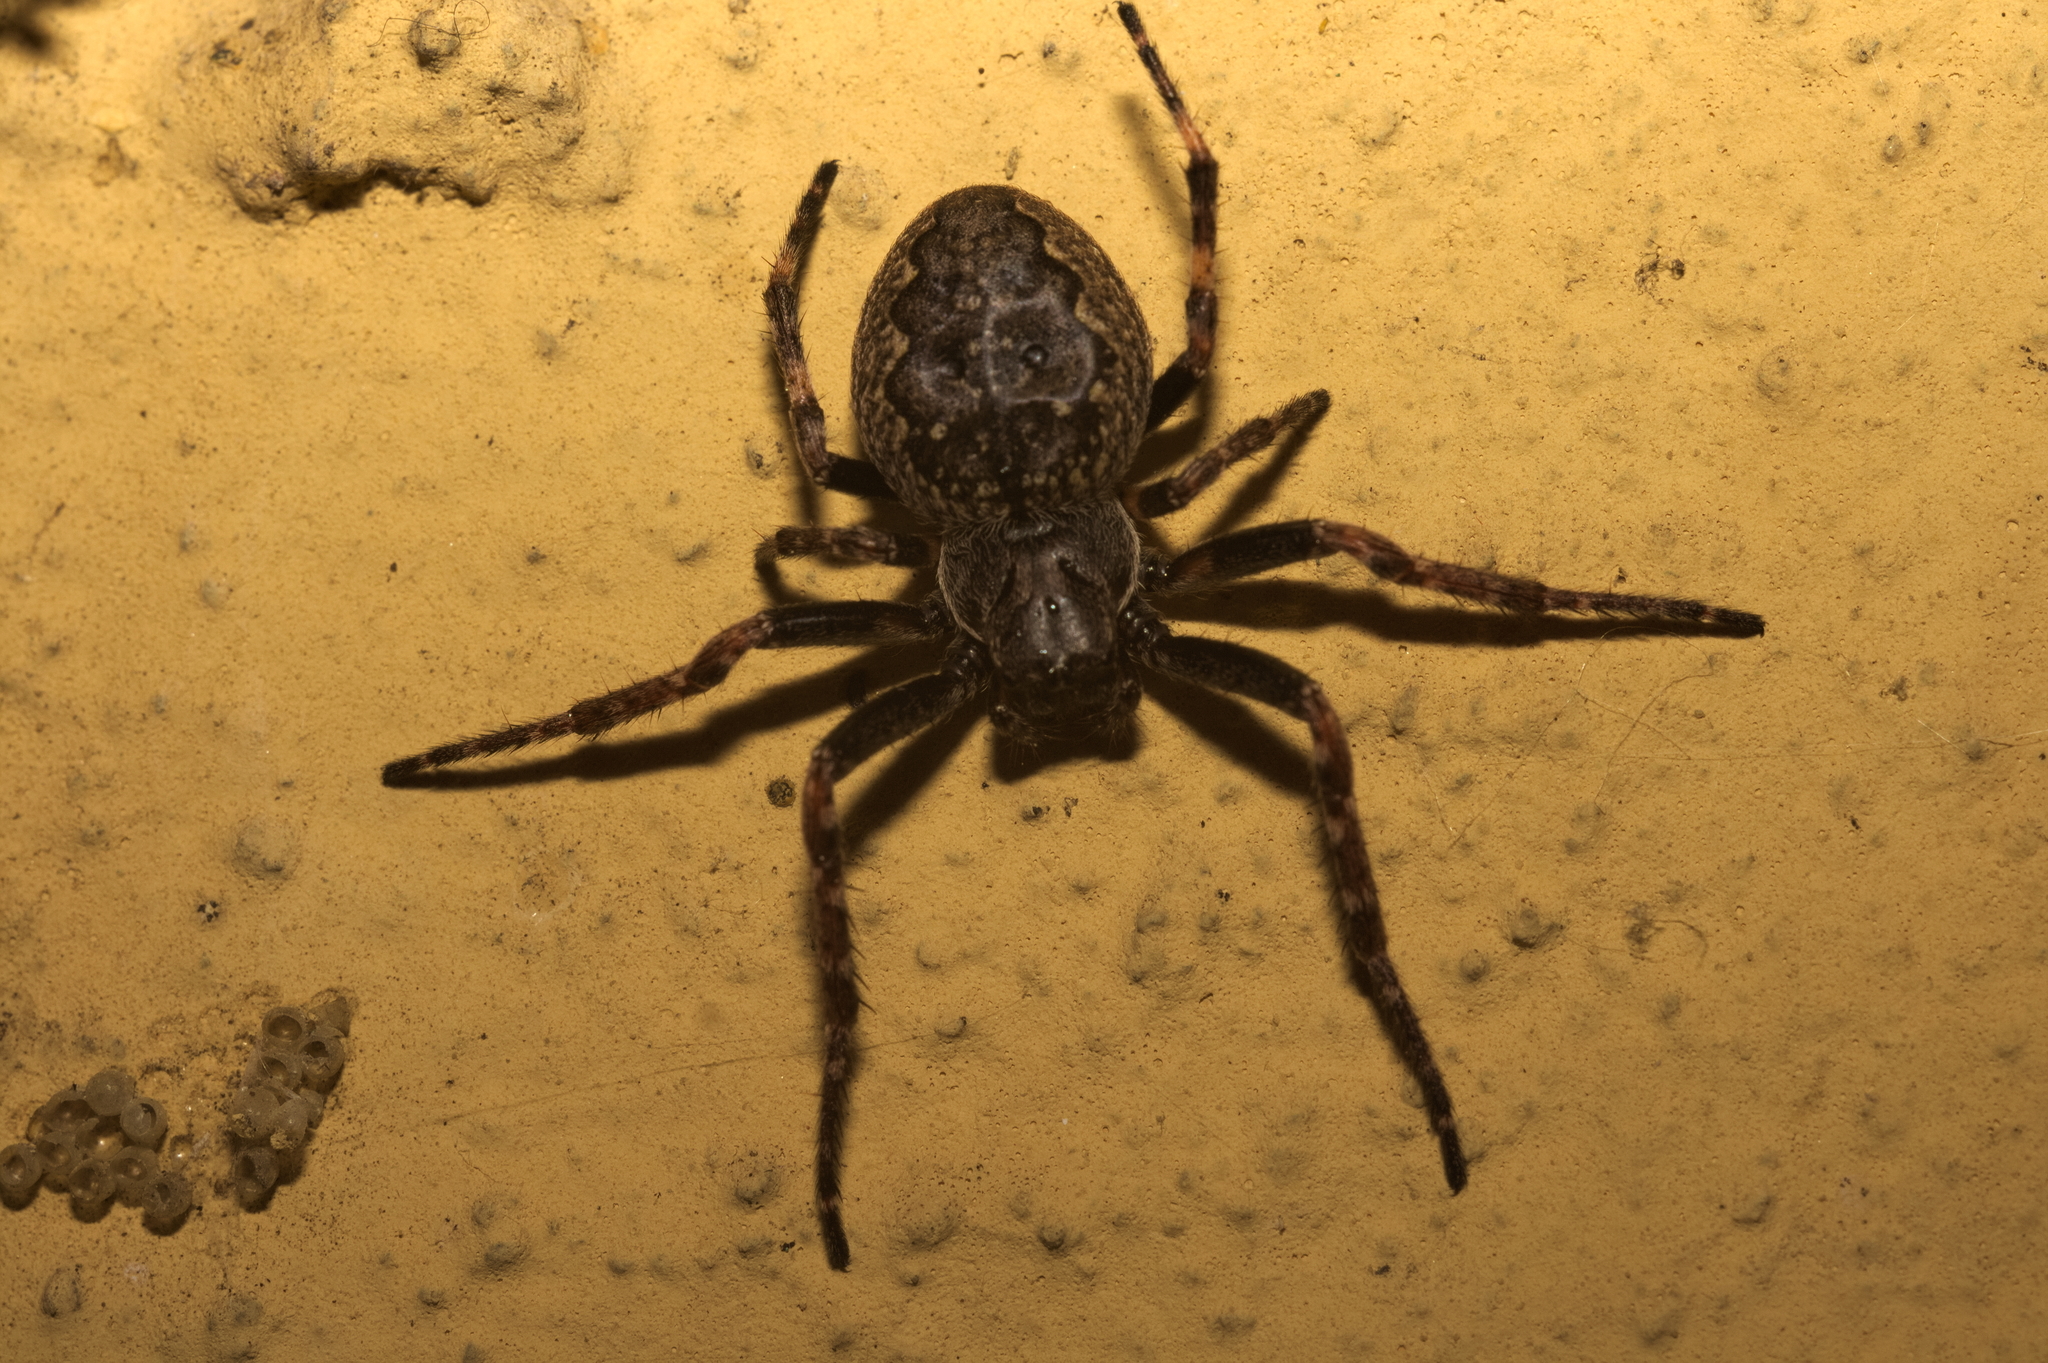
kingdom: Animalia
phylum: Arthropoda
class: Arachnida
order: Araneae
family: Araneidae
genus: Nuctenea
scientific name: Nuctenea umbratica
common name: Toad spider
